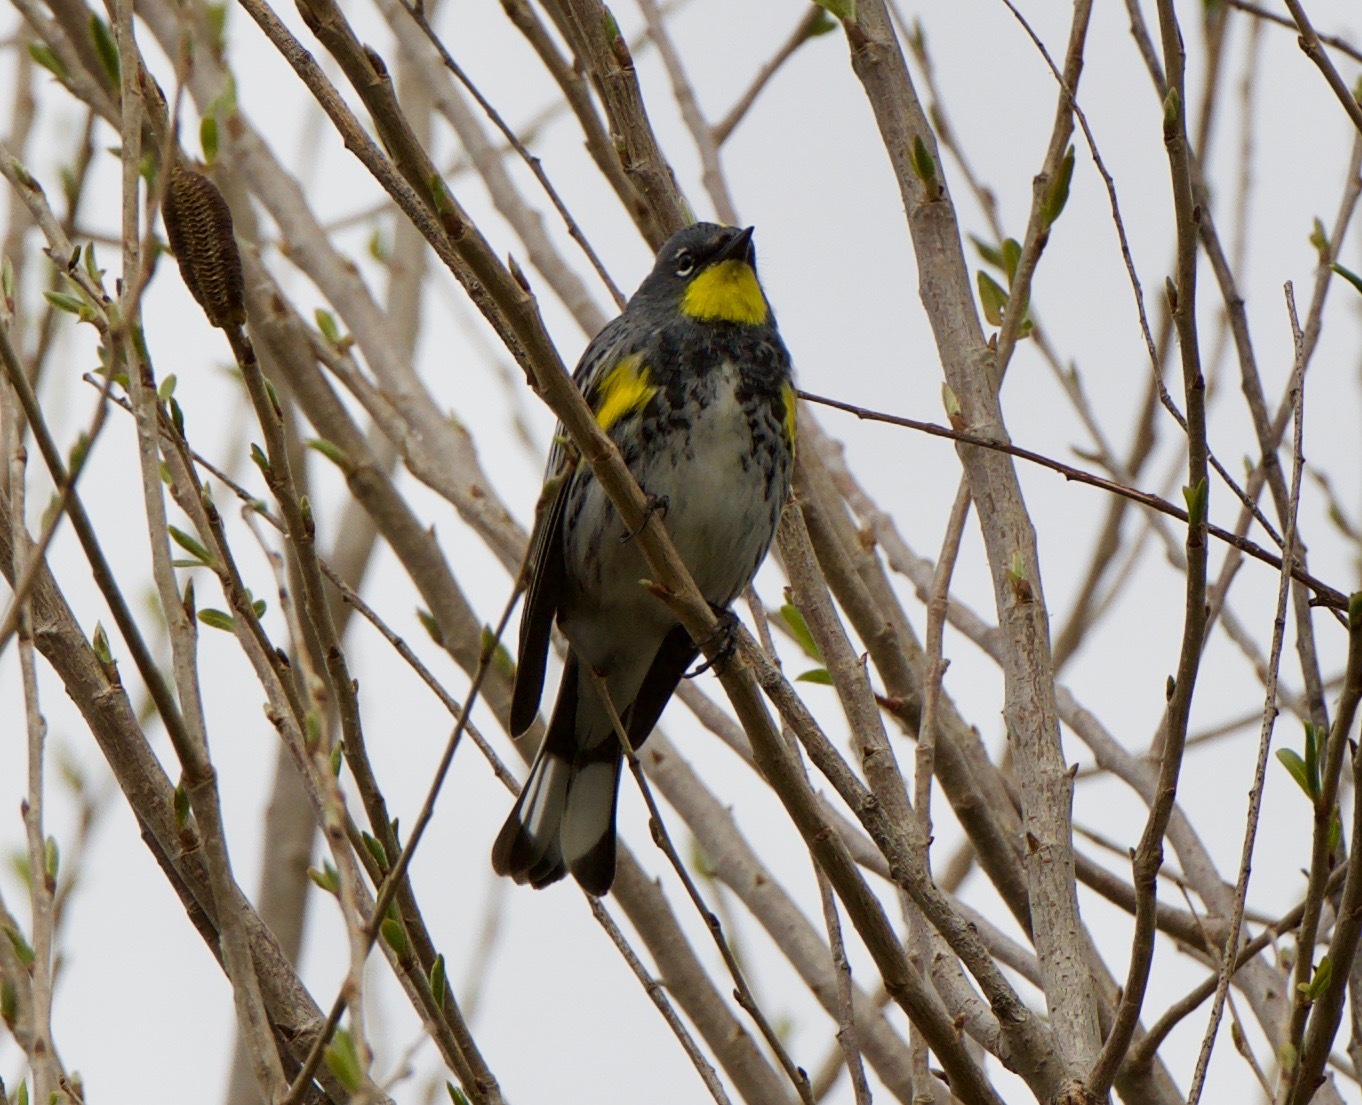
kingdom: Animalia
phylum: Chordata
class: Aves
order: Passeriformes
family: Parulidae
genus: Setophaga
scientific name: Setophaga auduboni
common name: Audubon's warbler
